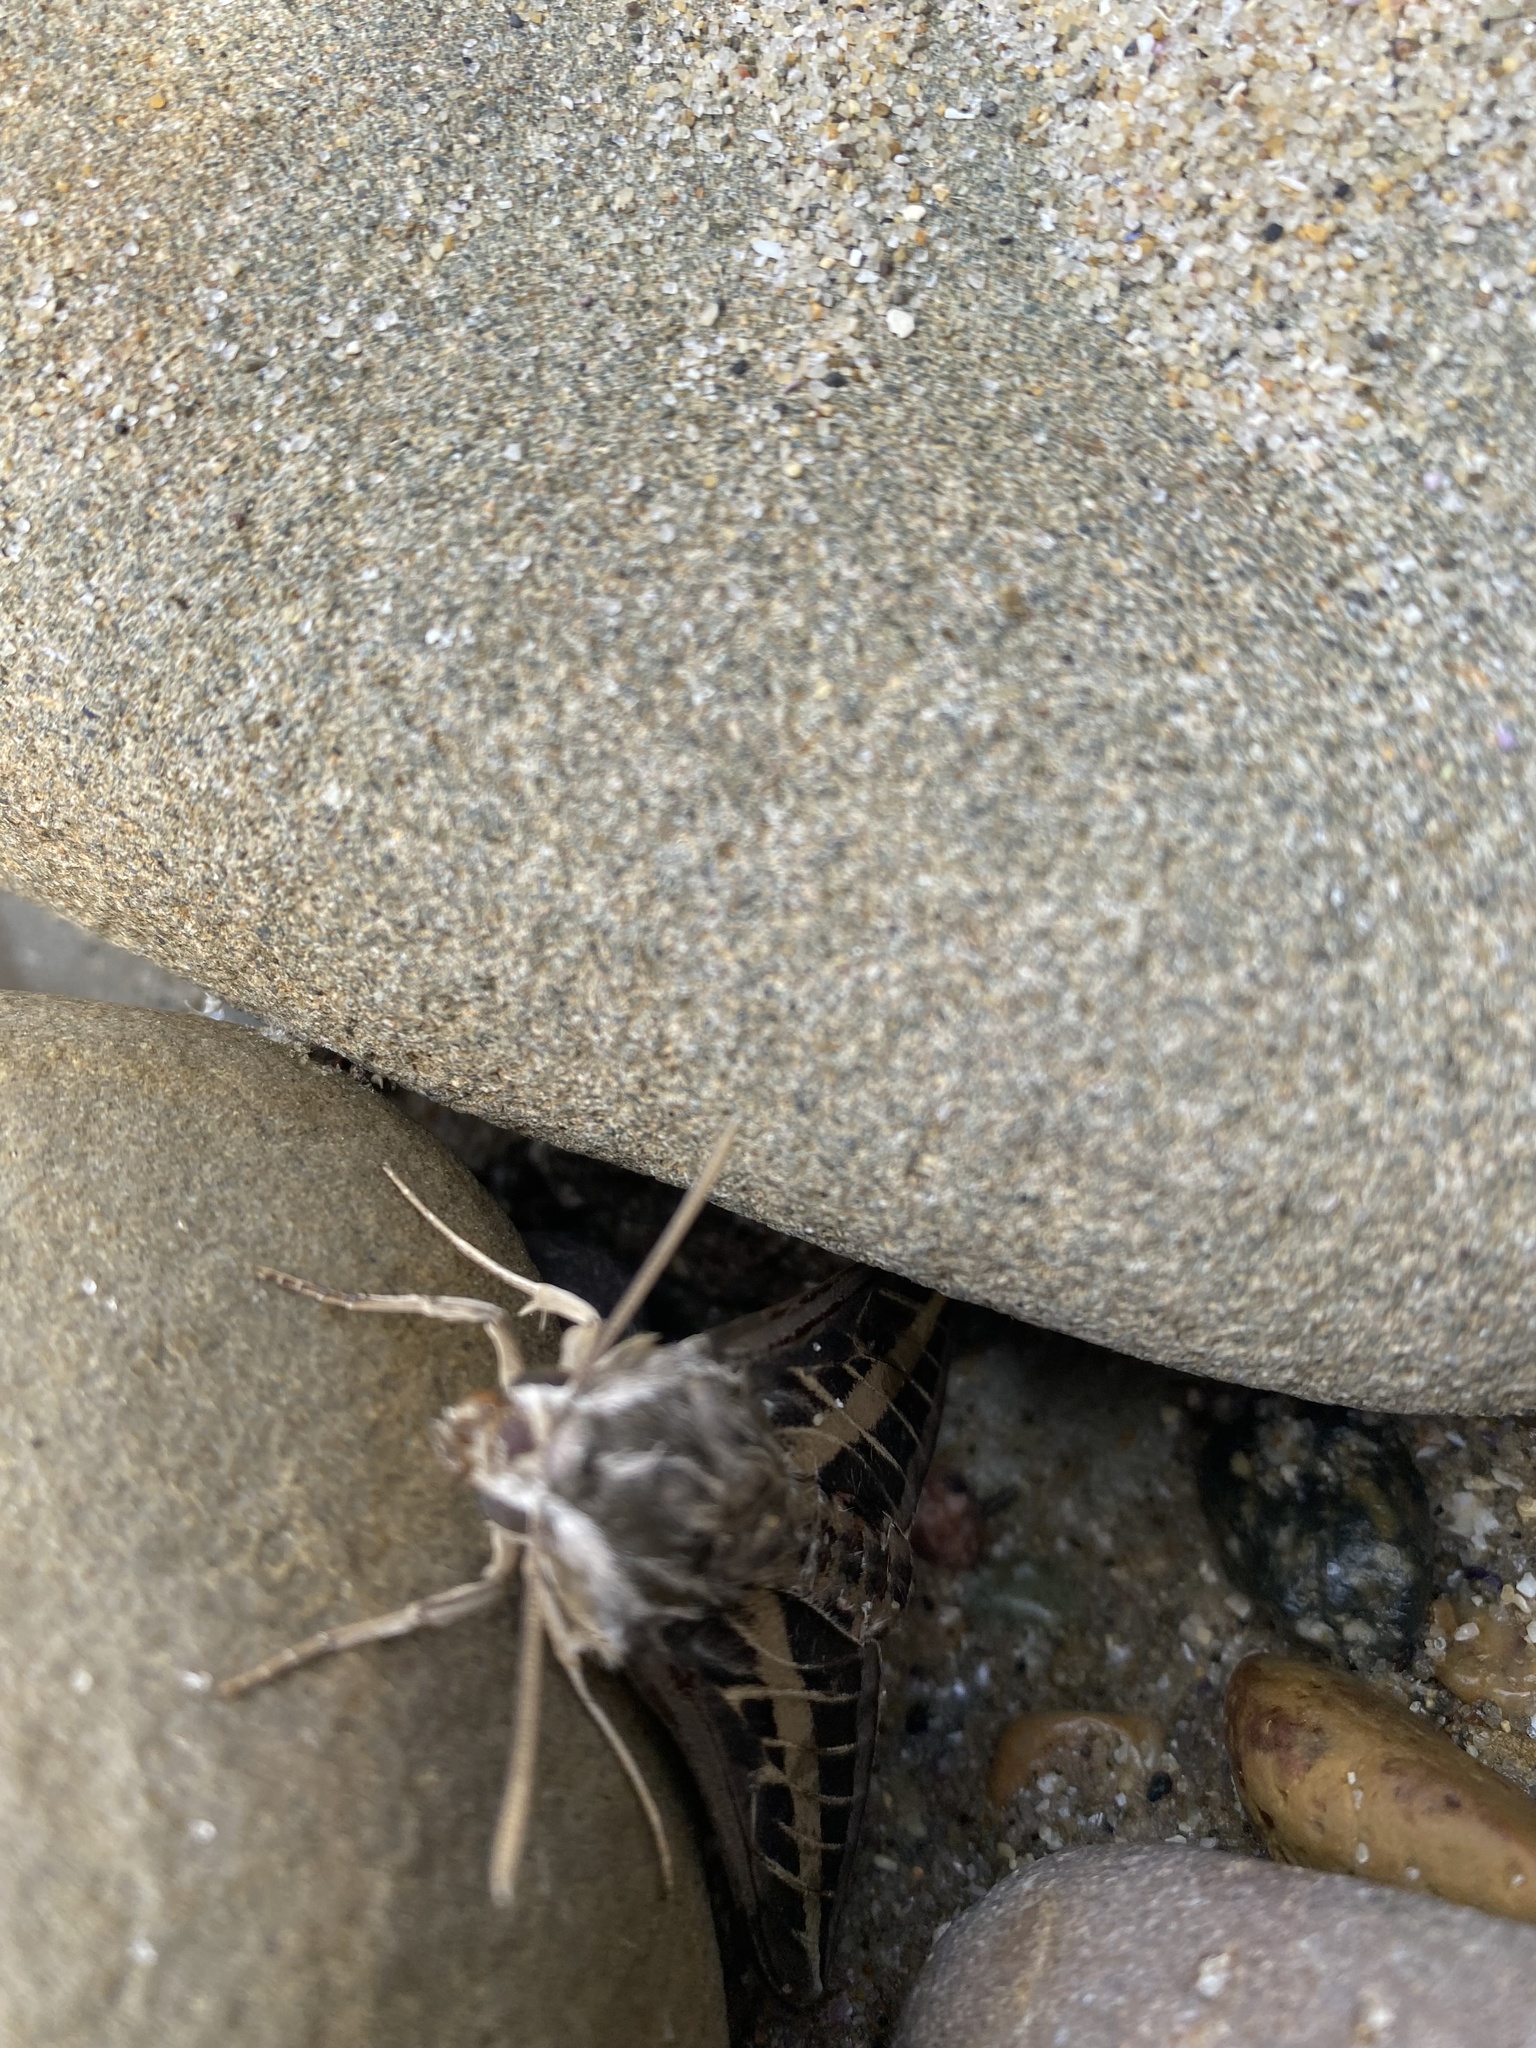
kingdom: Animalia
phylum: Arthropoda
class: Insecta
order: Lepidoptera
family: Sphingidae
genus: Hyles
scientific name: Hyles lineata
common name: White-lined sphinx
